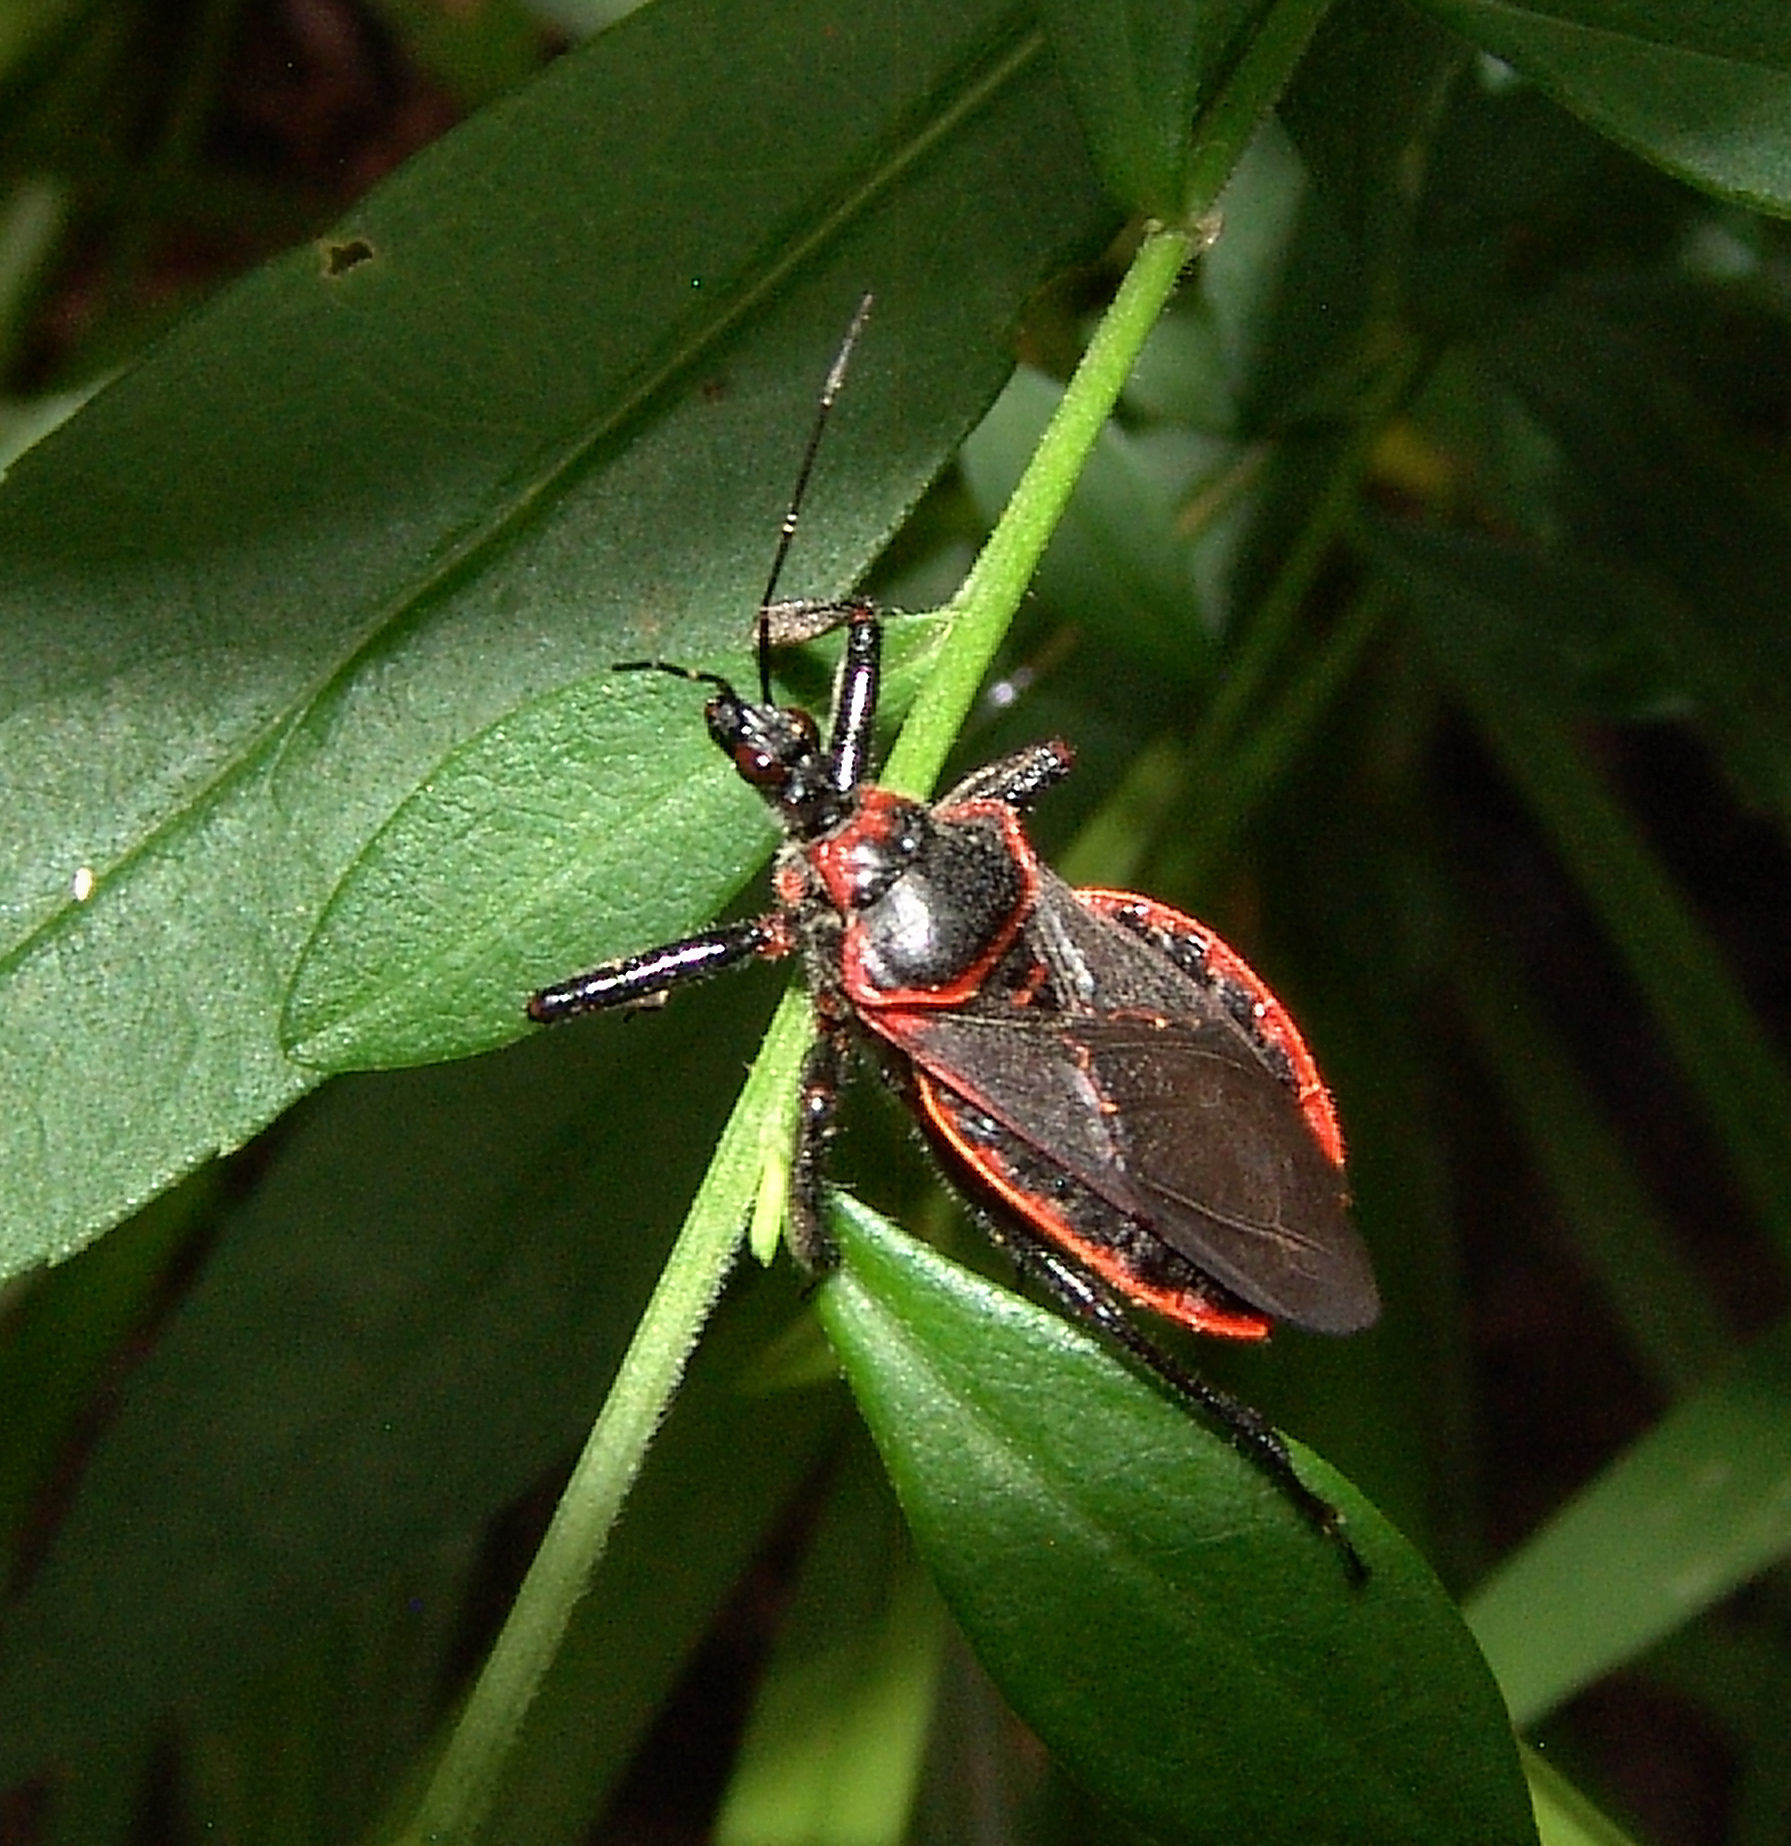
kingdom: Animalia
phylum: Arthropoda
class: Insecta
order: Hemiptera
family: Reduviidae
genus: Apiomerus
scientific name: Apiomerus crassipes
